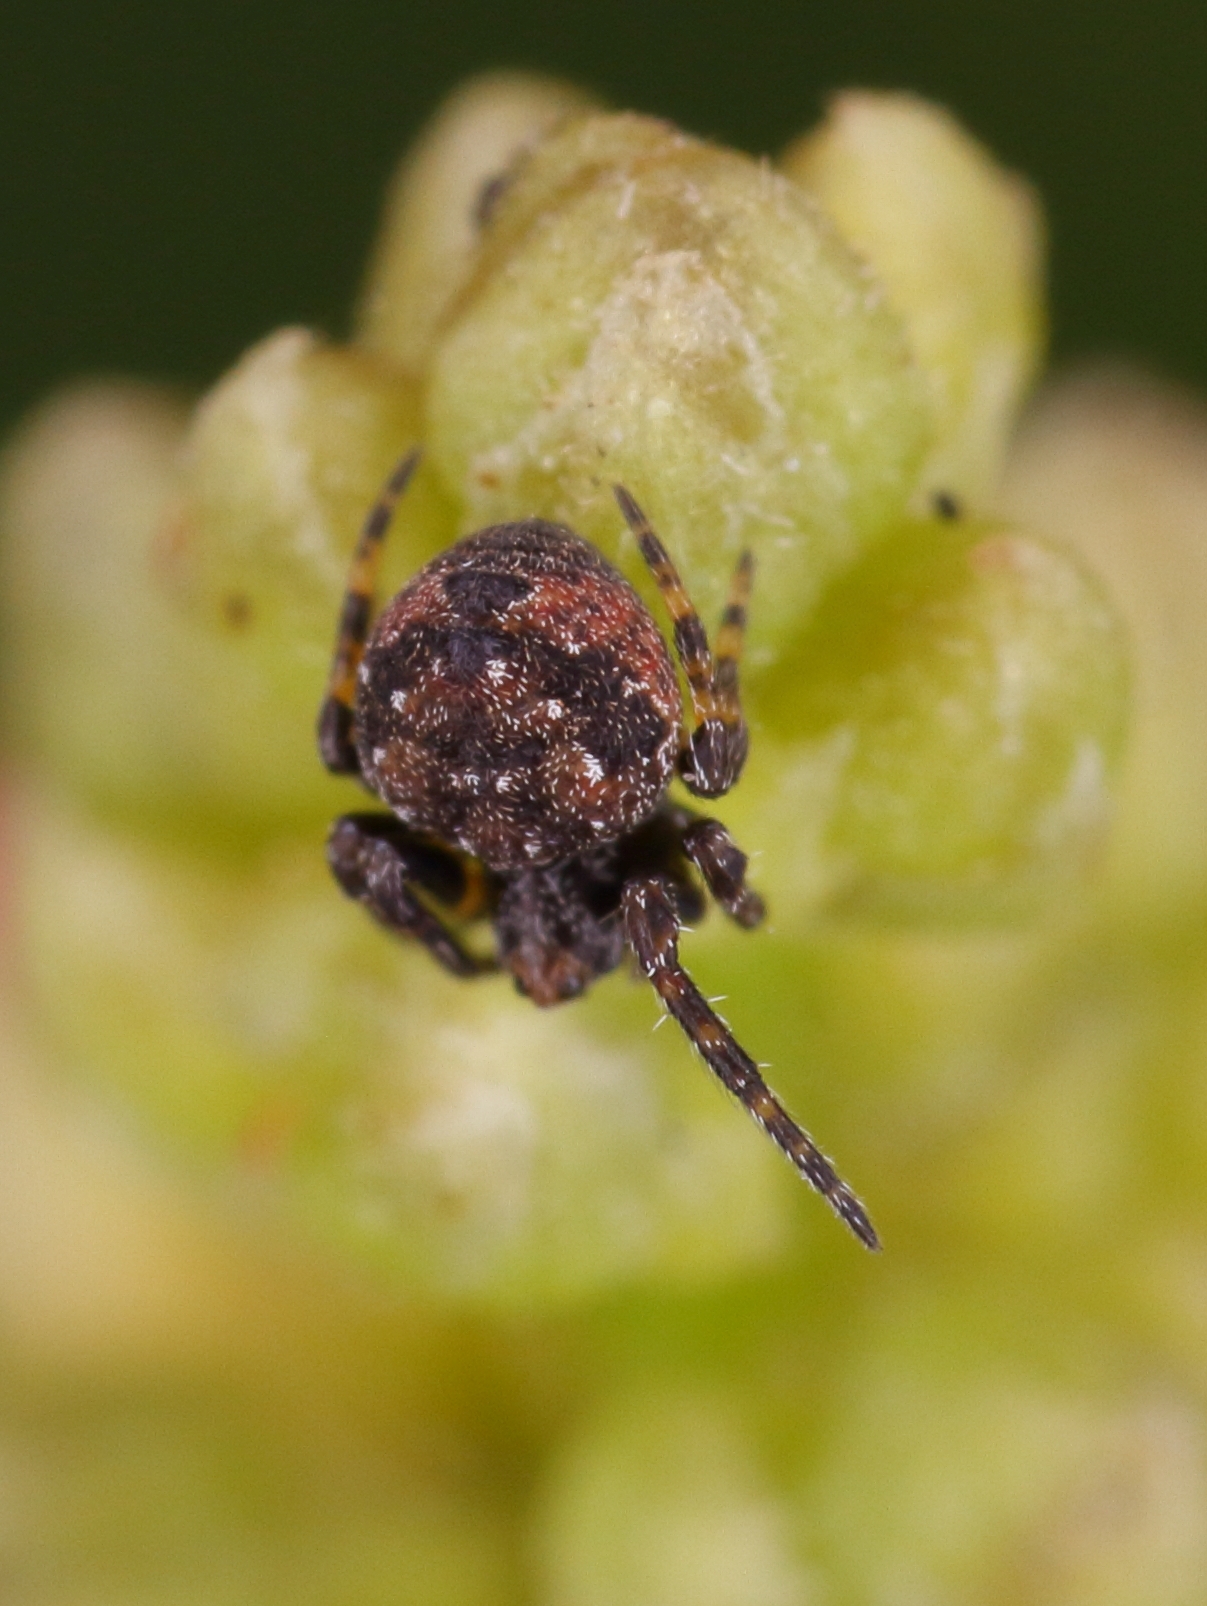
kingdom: Animalia
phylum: Arthropoda
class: Arachnida
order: Araneae
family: Araneidae
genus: Eriovixia
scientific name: Eriovixia excelsa
